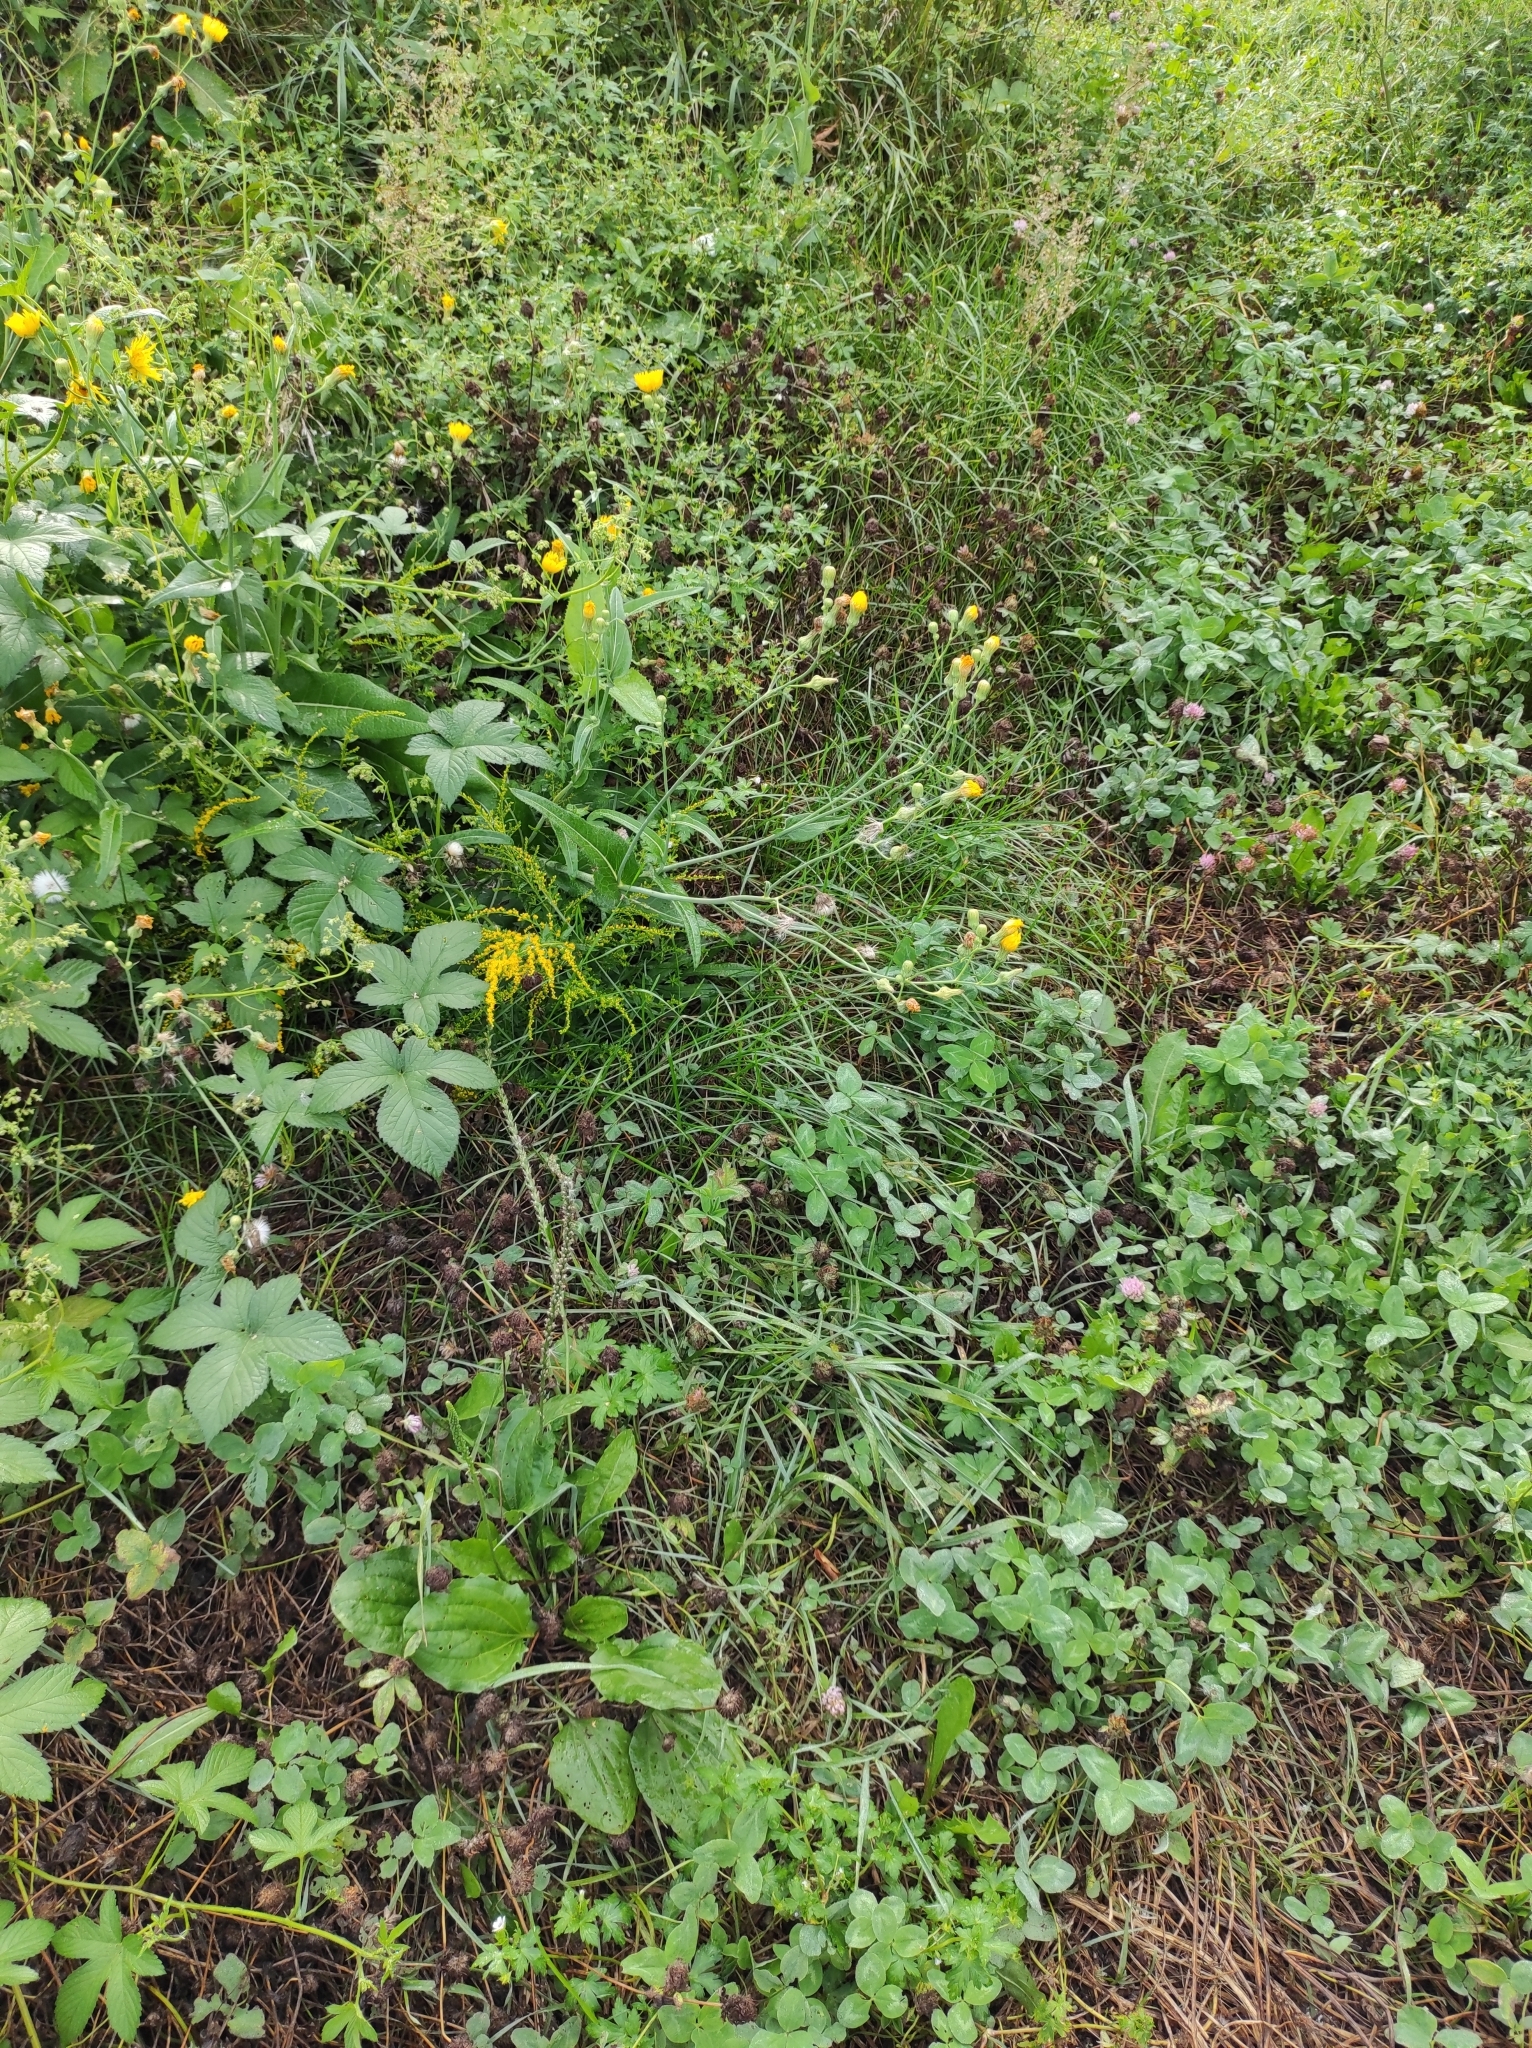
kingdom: Plantae
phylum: Tracheophyta
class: Magnoliopsida
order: Asterales
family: Asteraceae
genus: Sonchus
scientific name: Sonchus arvensis
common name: Perennial sow-thistle
